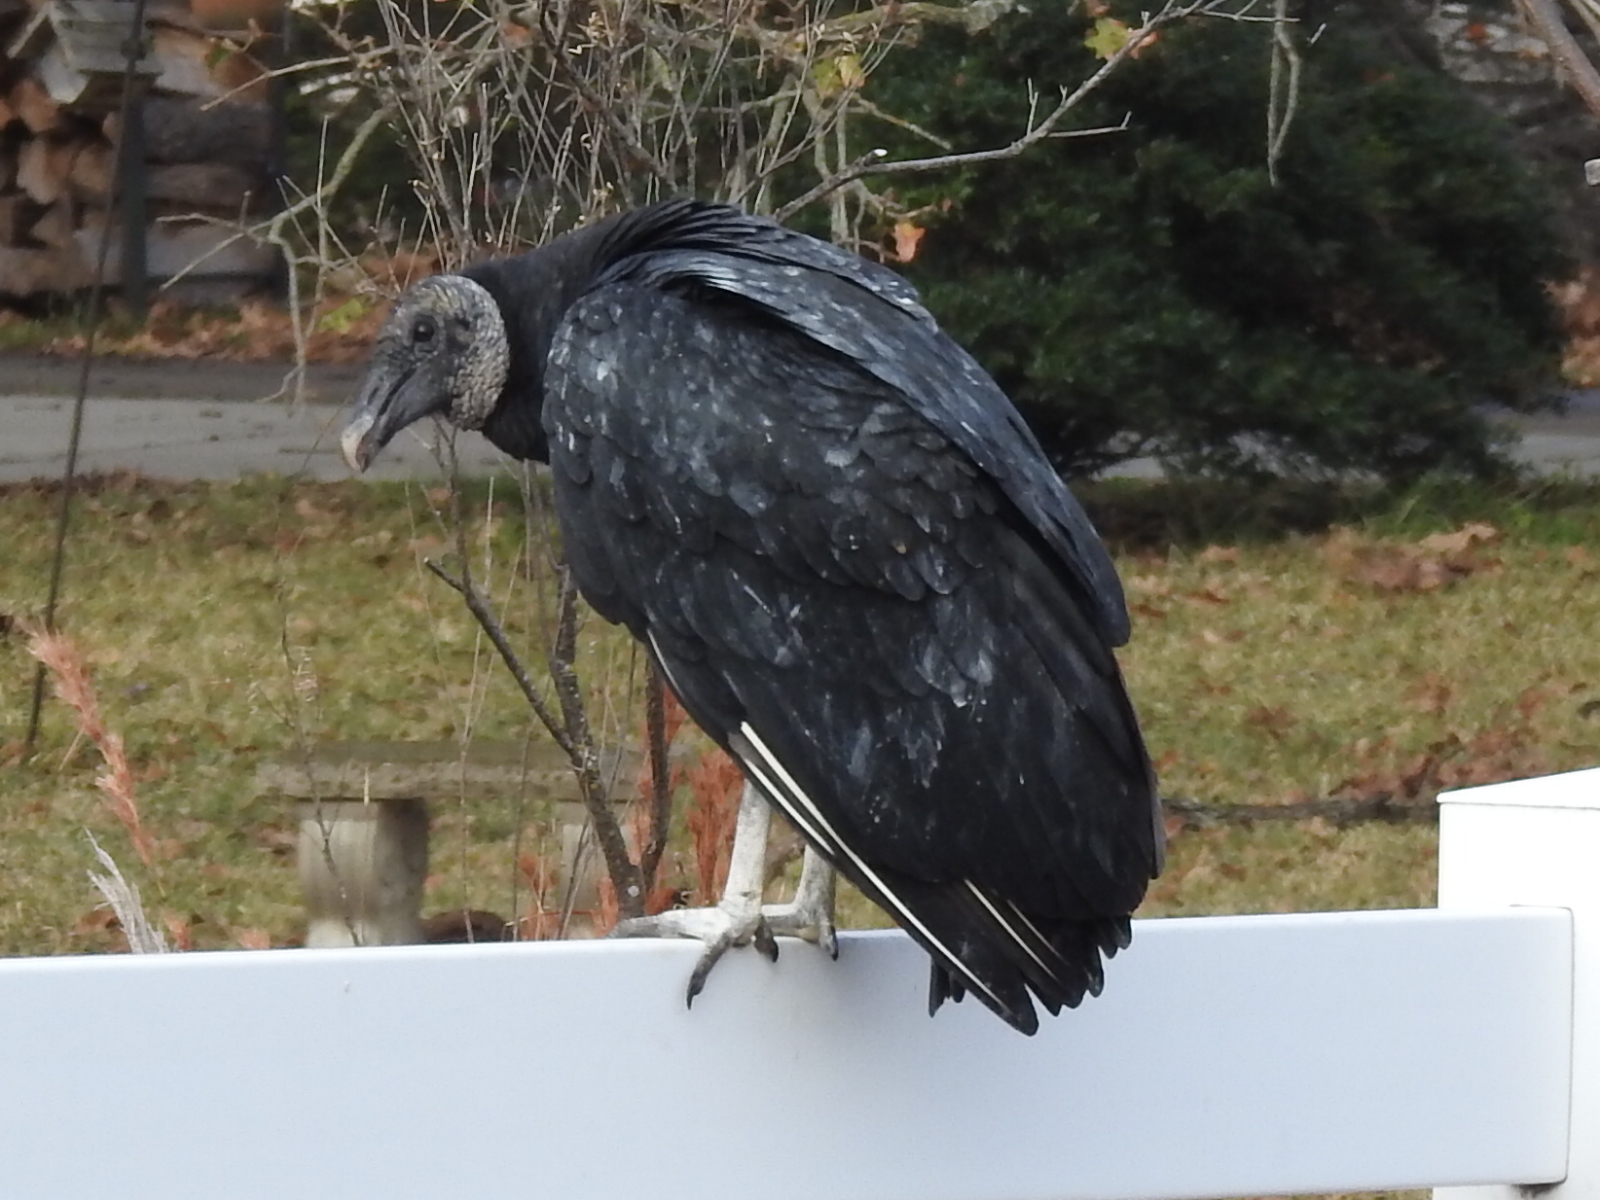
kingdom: Animalia
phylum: Chordata
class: Aves
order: Accipitriformes
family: Cathartidae
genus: Coragyps
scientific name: Coragyps atratus
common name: Black vulture
